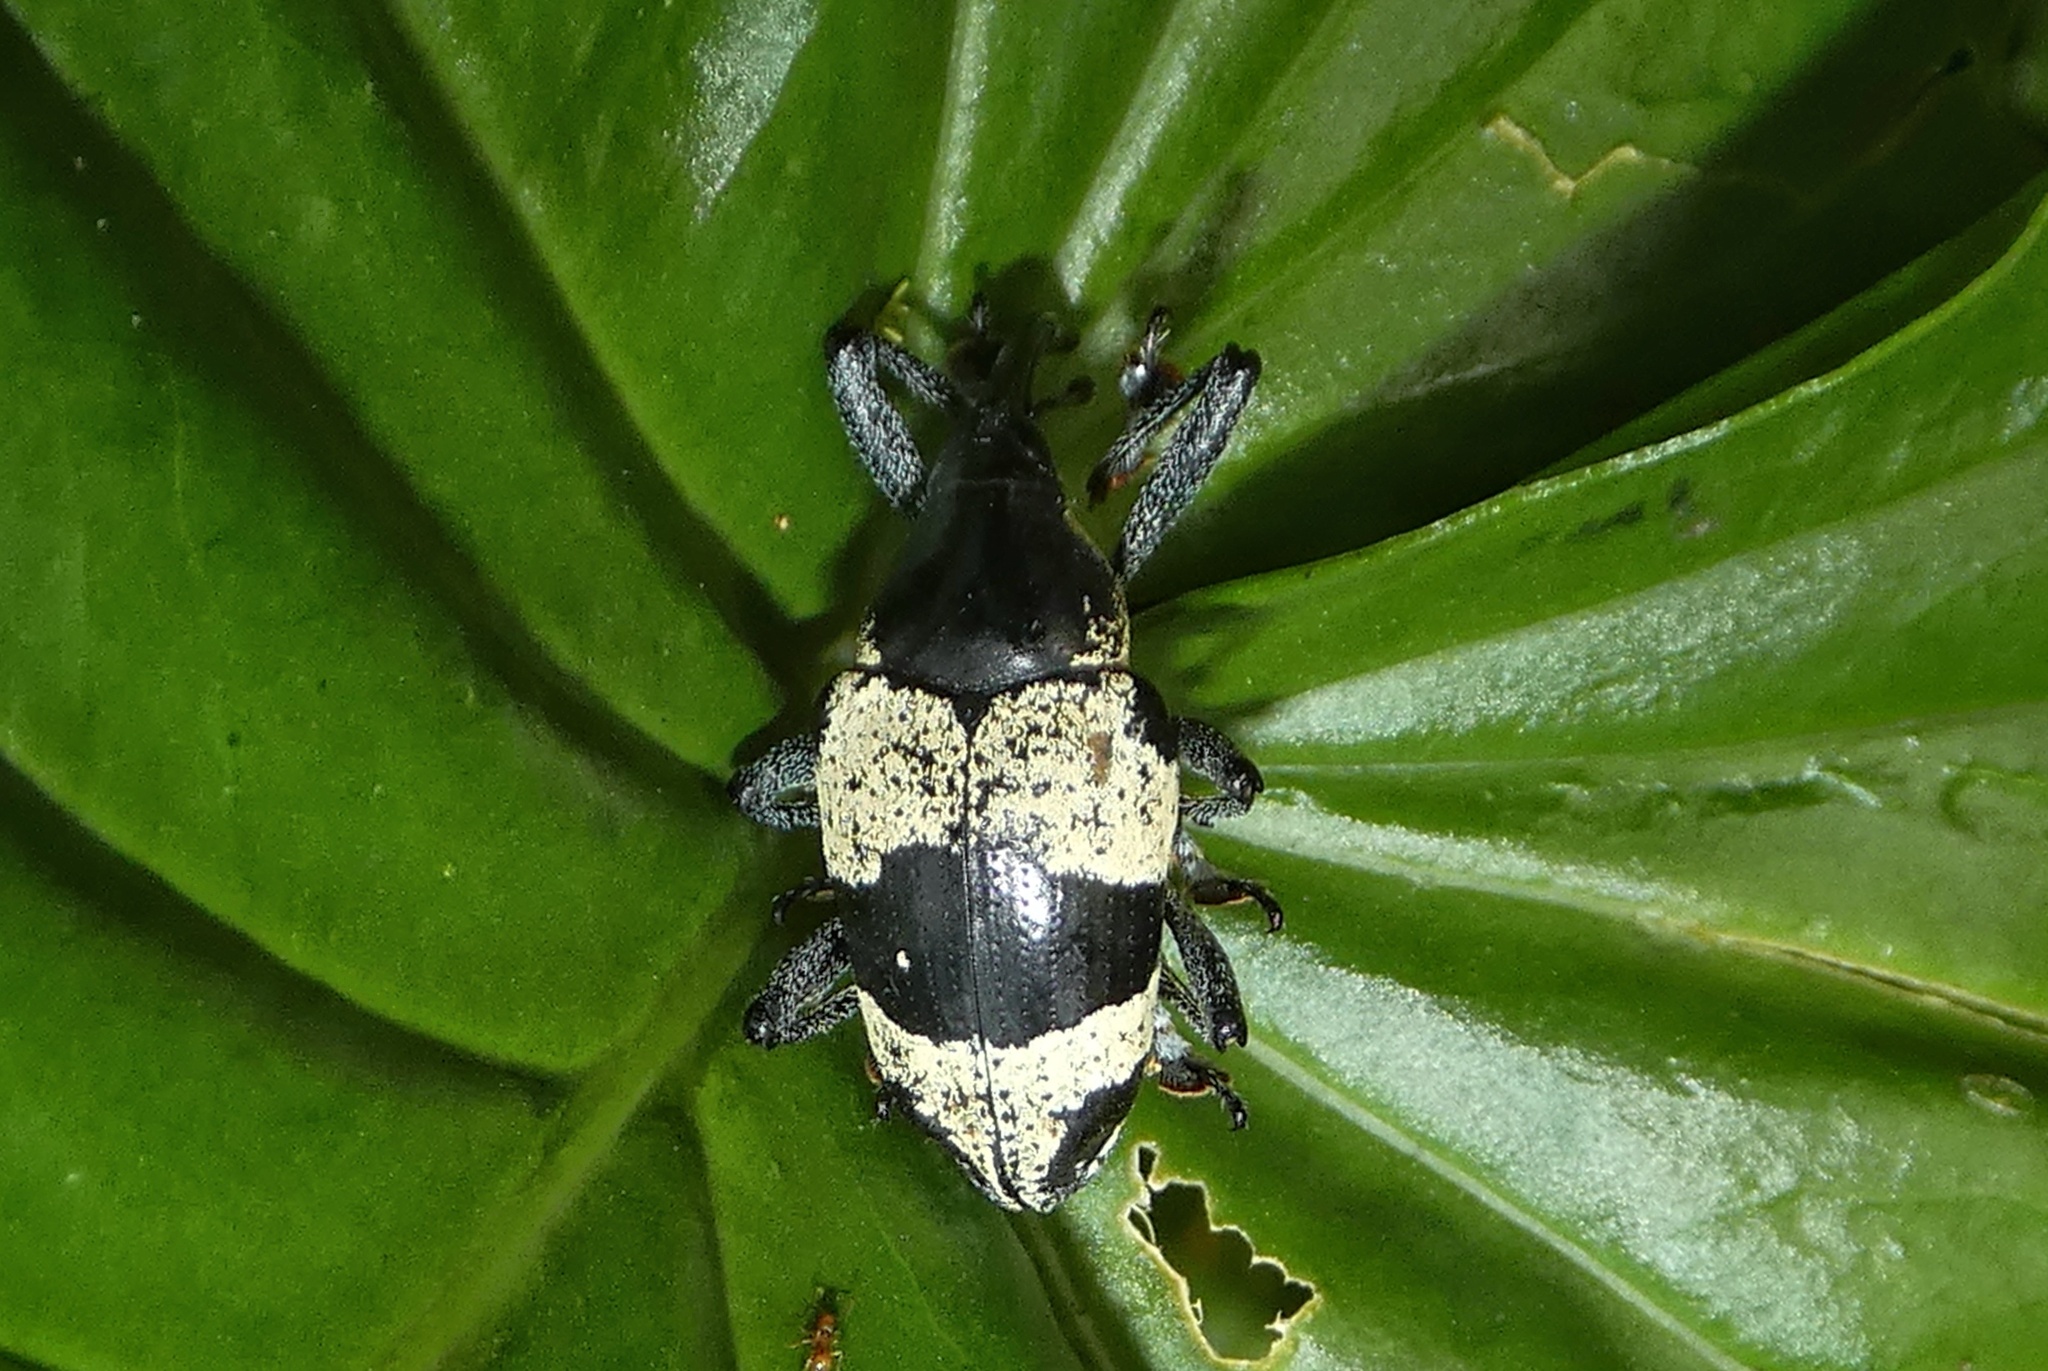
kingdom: Animalia
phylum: Arthropoda
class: Insecta
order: Coleoptera
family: Curculionidae
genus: Cholus
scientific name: Cholus praetorius
